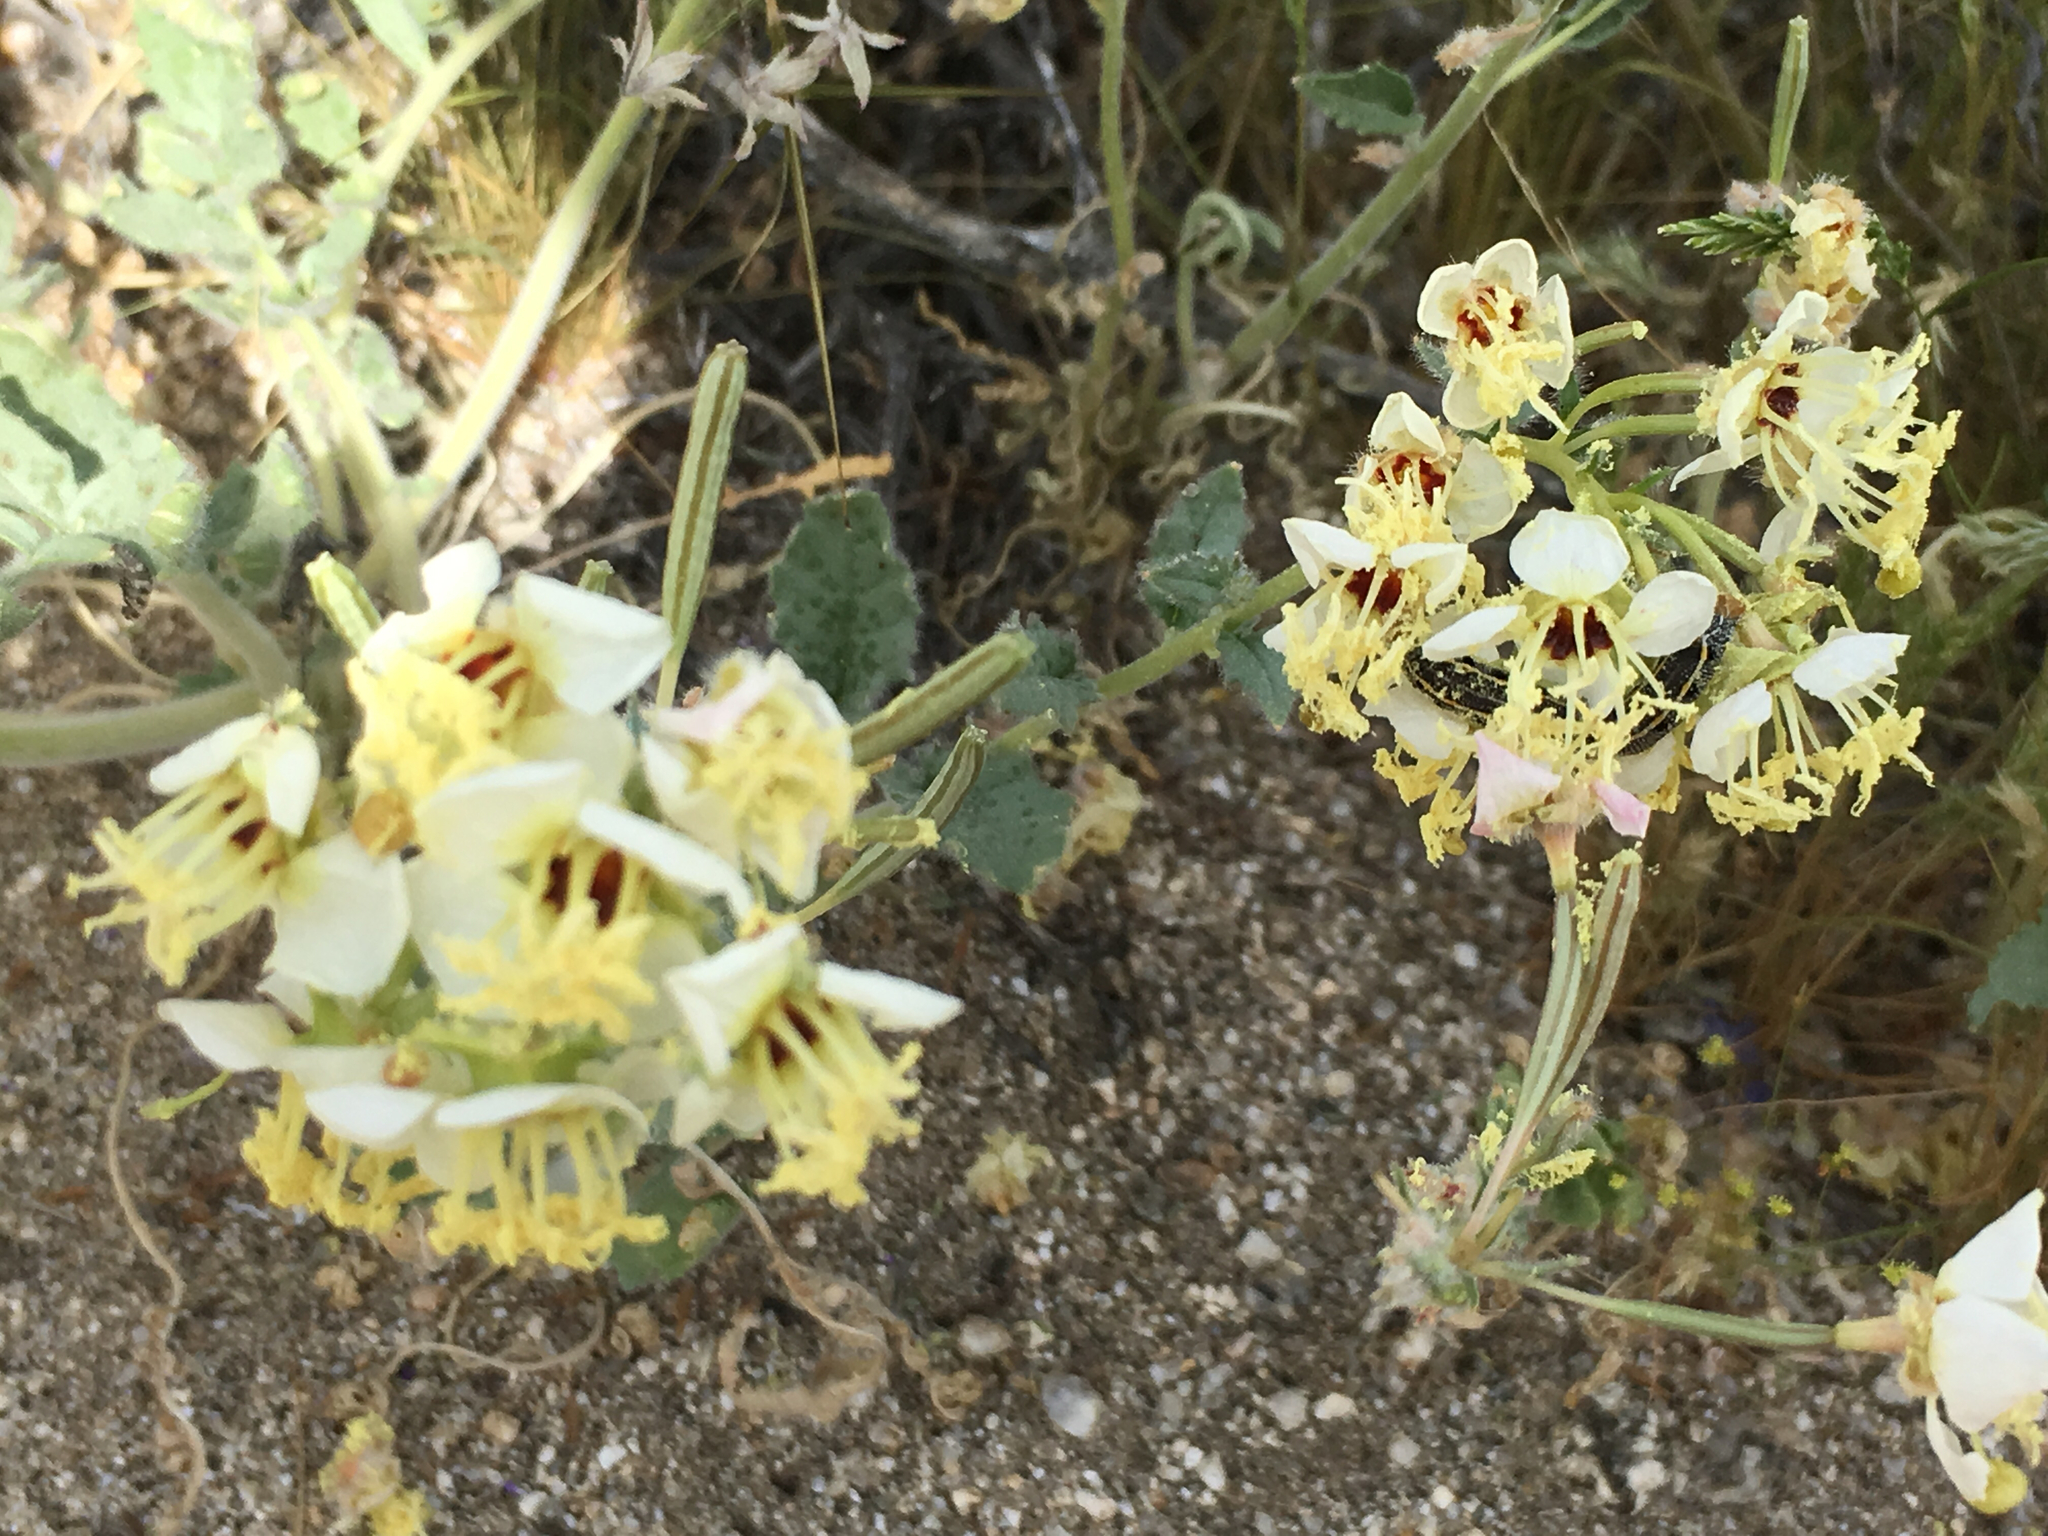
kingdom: Plantae
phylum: Tracheophyta
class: Magnoliopsida
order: Myrtales
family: Onagraceae
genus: Chylismia
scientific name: Chylismia claviformis
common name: Browneyes
